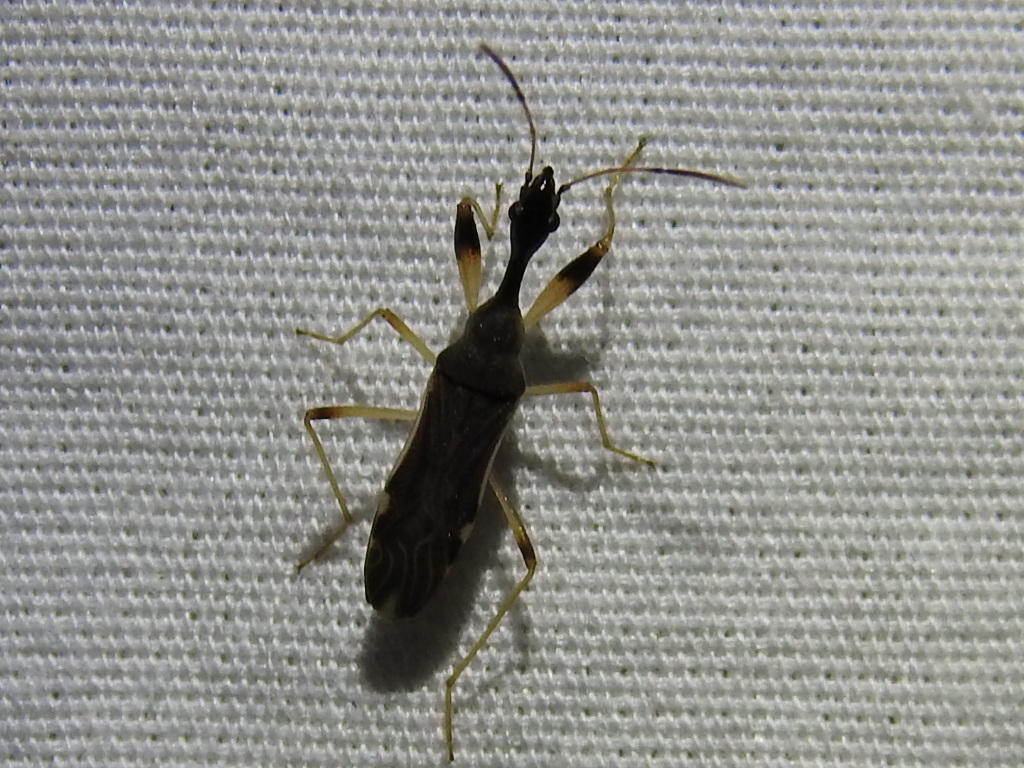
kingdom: Animalia
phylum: Arthropoda
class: Insecta
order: Hemiptera
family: Rhyparochromidae
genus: Myodocha
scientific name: Myodocha serripes
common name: Long-necked seed bug
